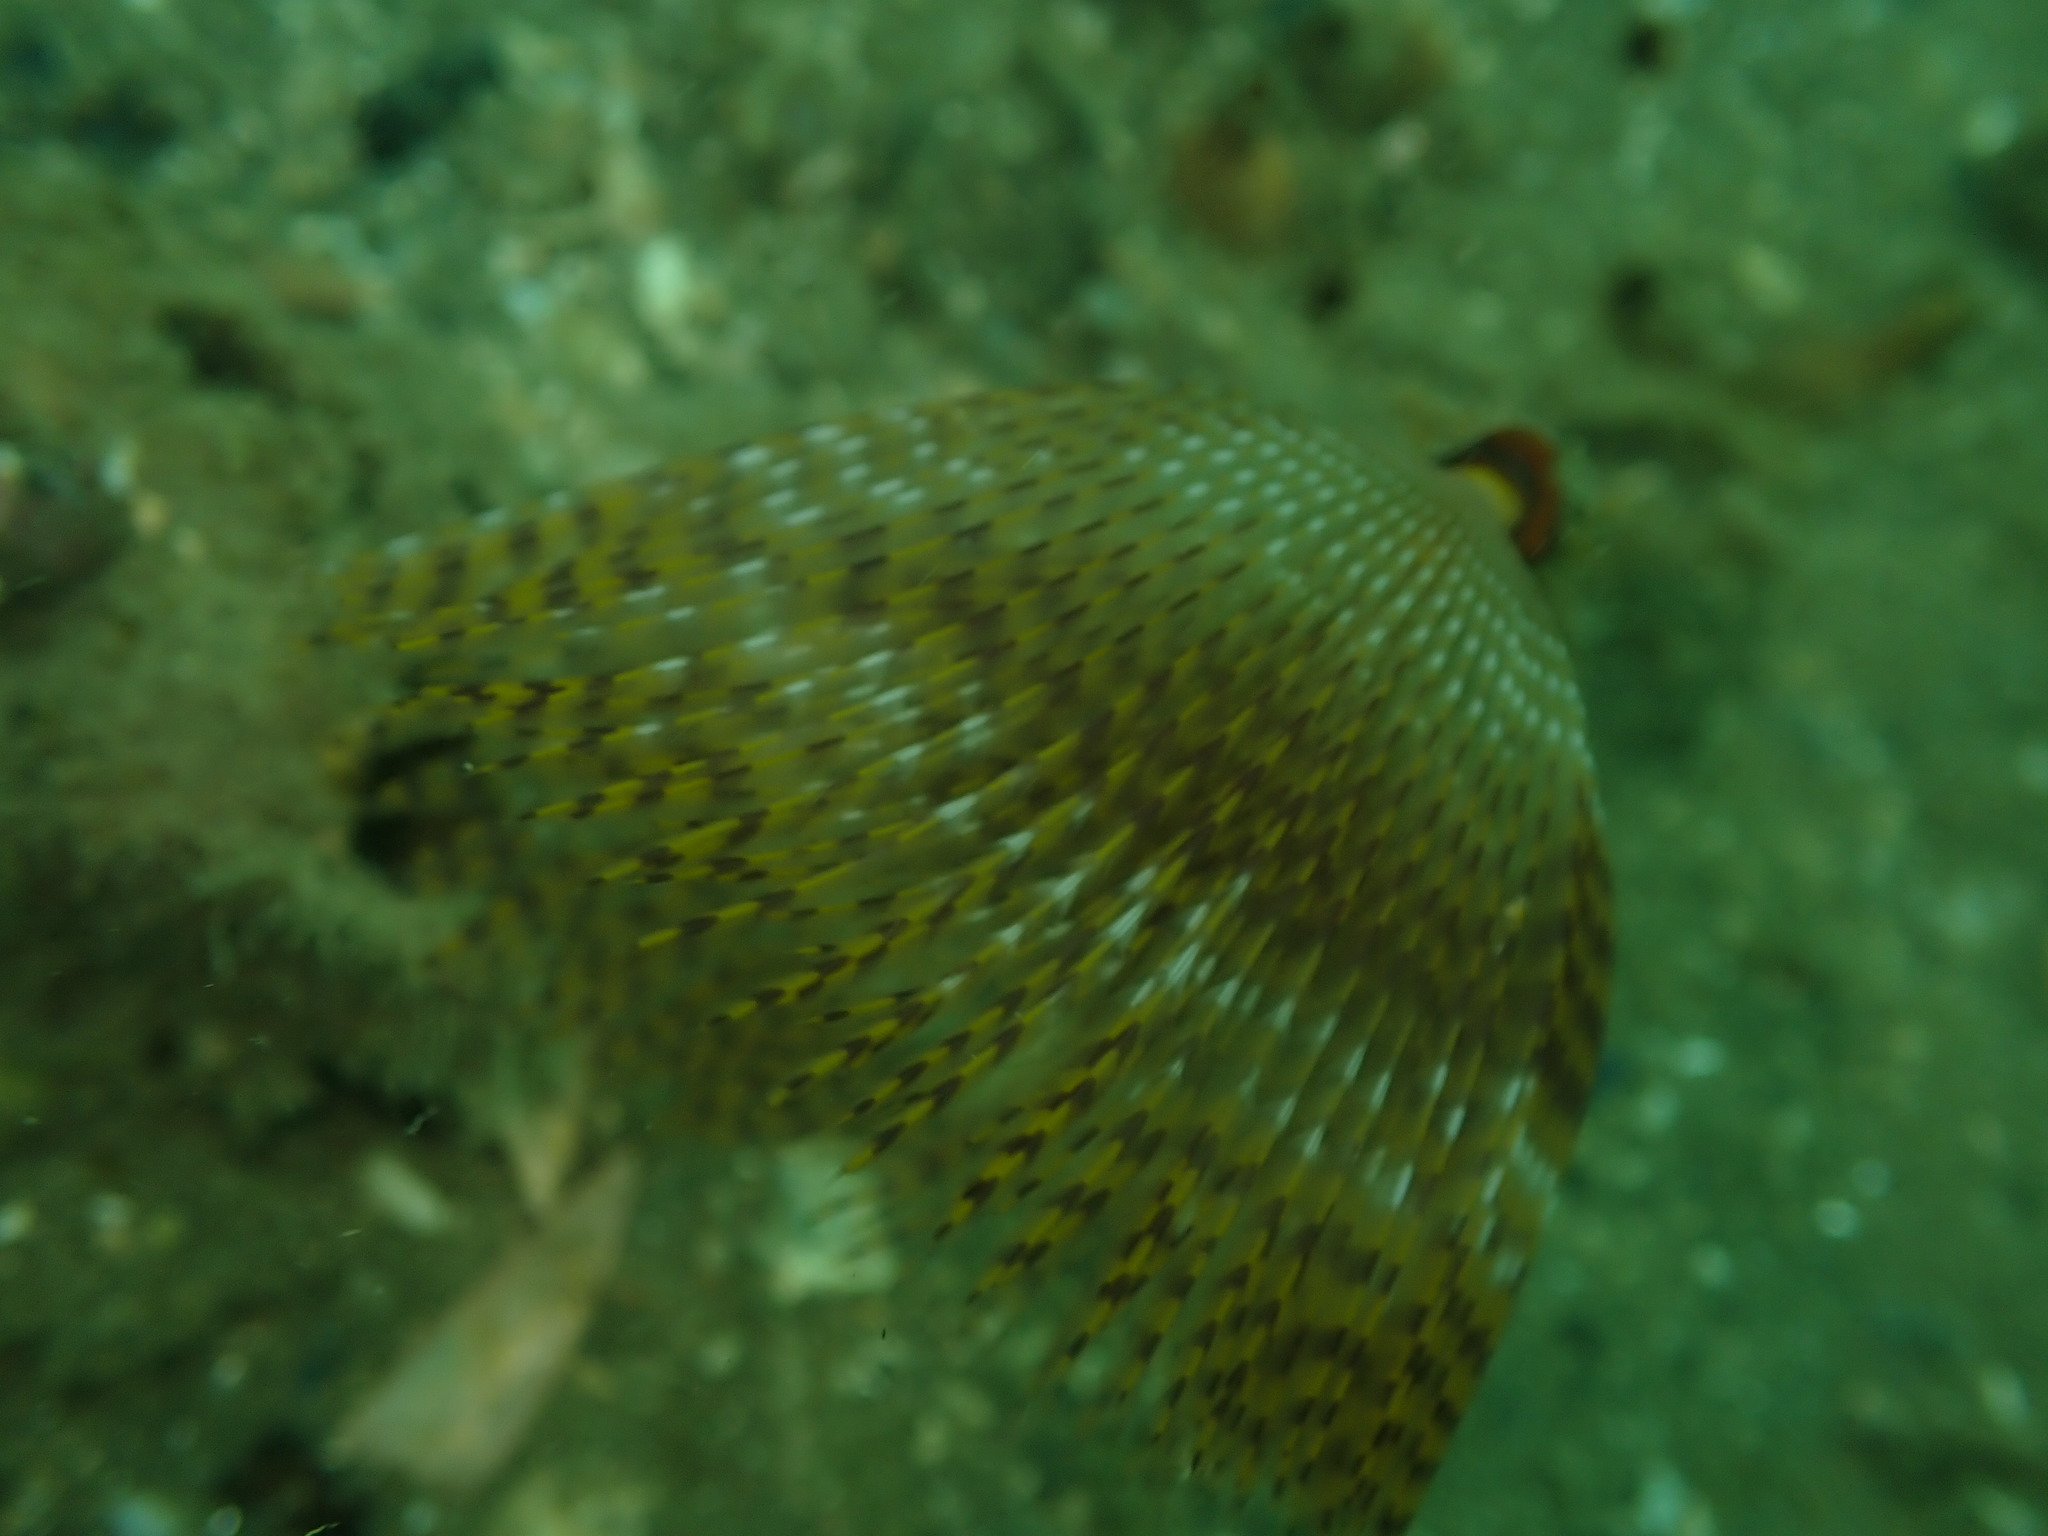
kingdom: Animalia
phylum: Annelida
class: Polychaeta
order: Sabellida
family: Sabellidae
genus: Sabella
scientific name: Sabella spallanzanii
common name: Feather duster worm
